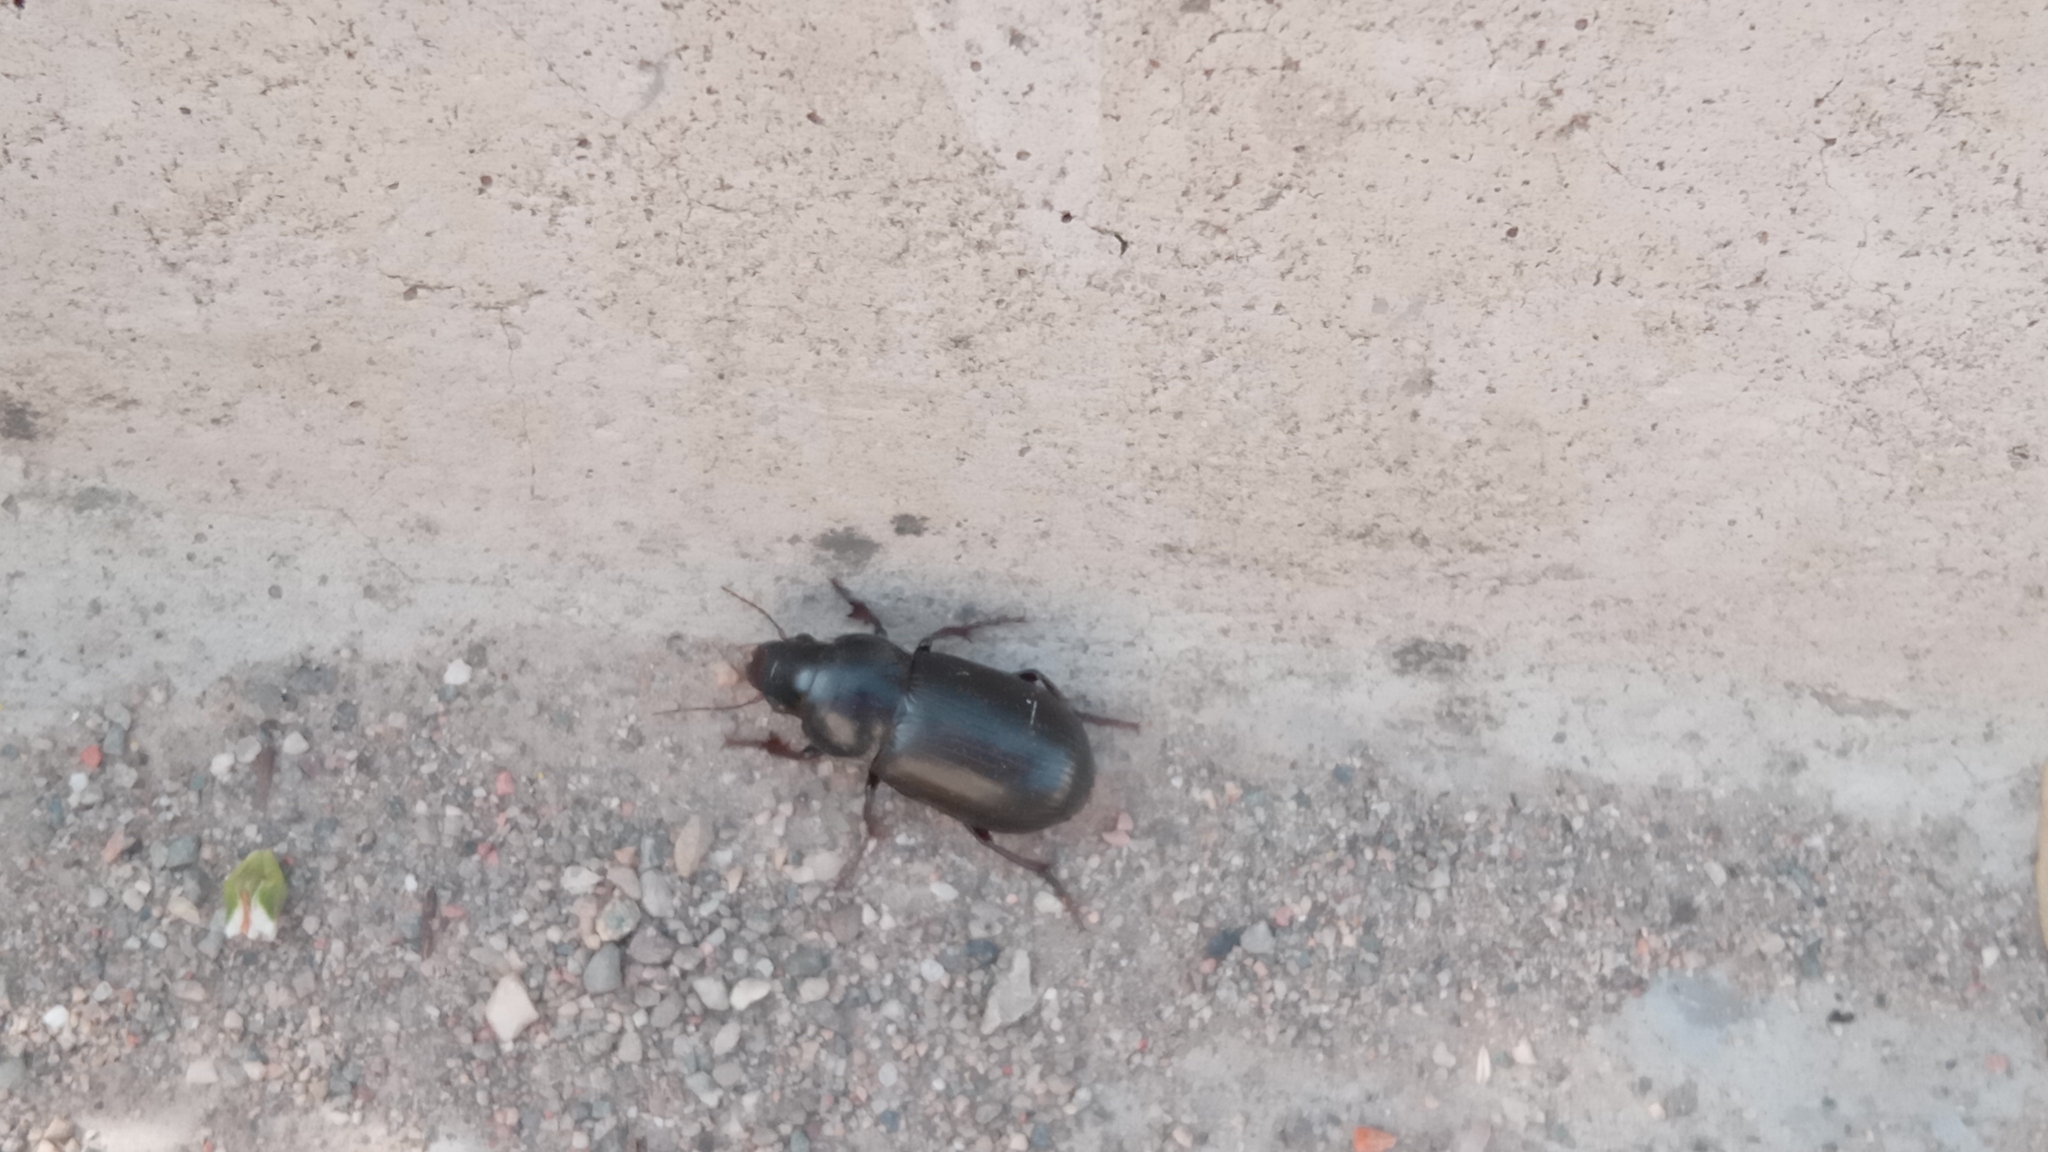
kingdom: Animalia
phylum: Arthropoda
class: Insecta
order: Coleoptera
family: Carabidae
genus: Zabrus
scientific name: Zabrus morio
